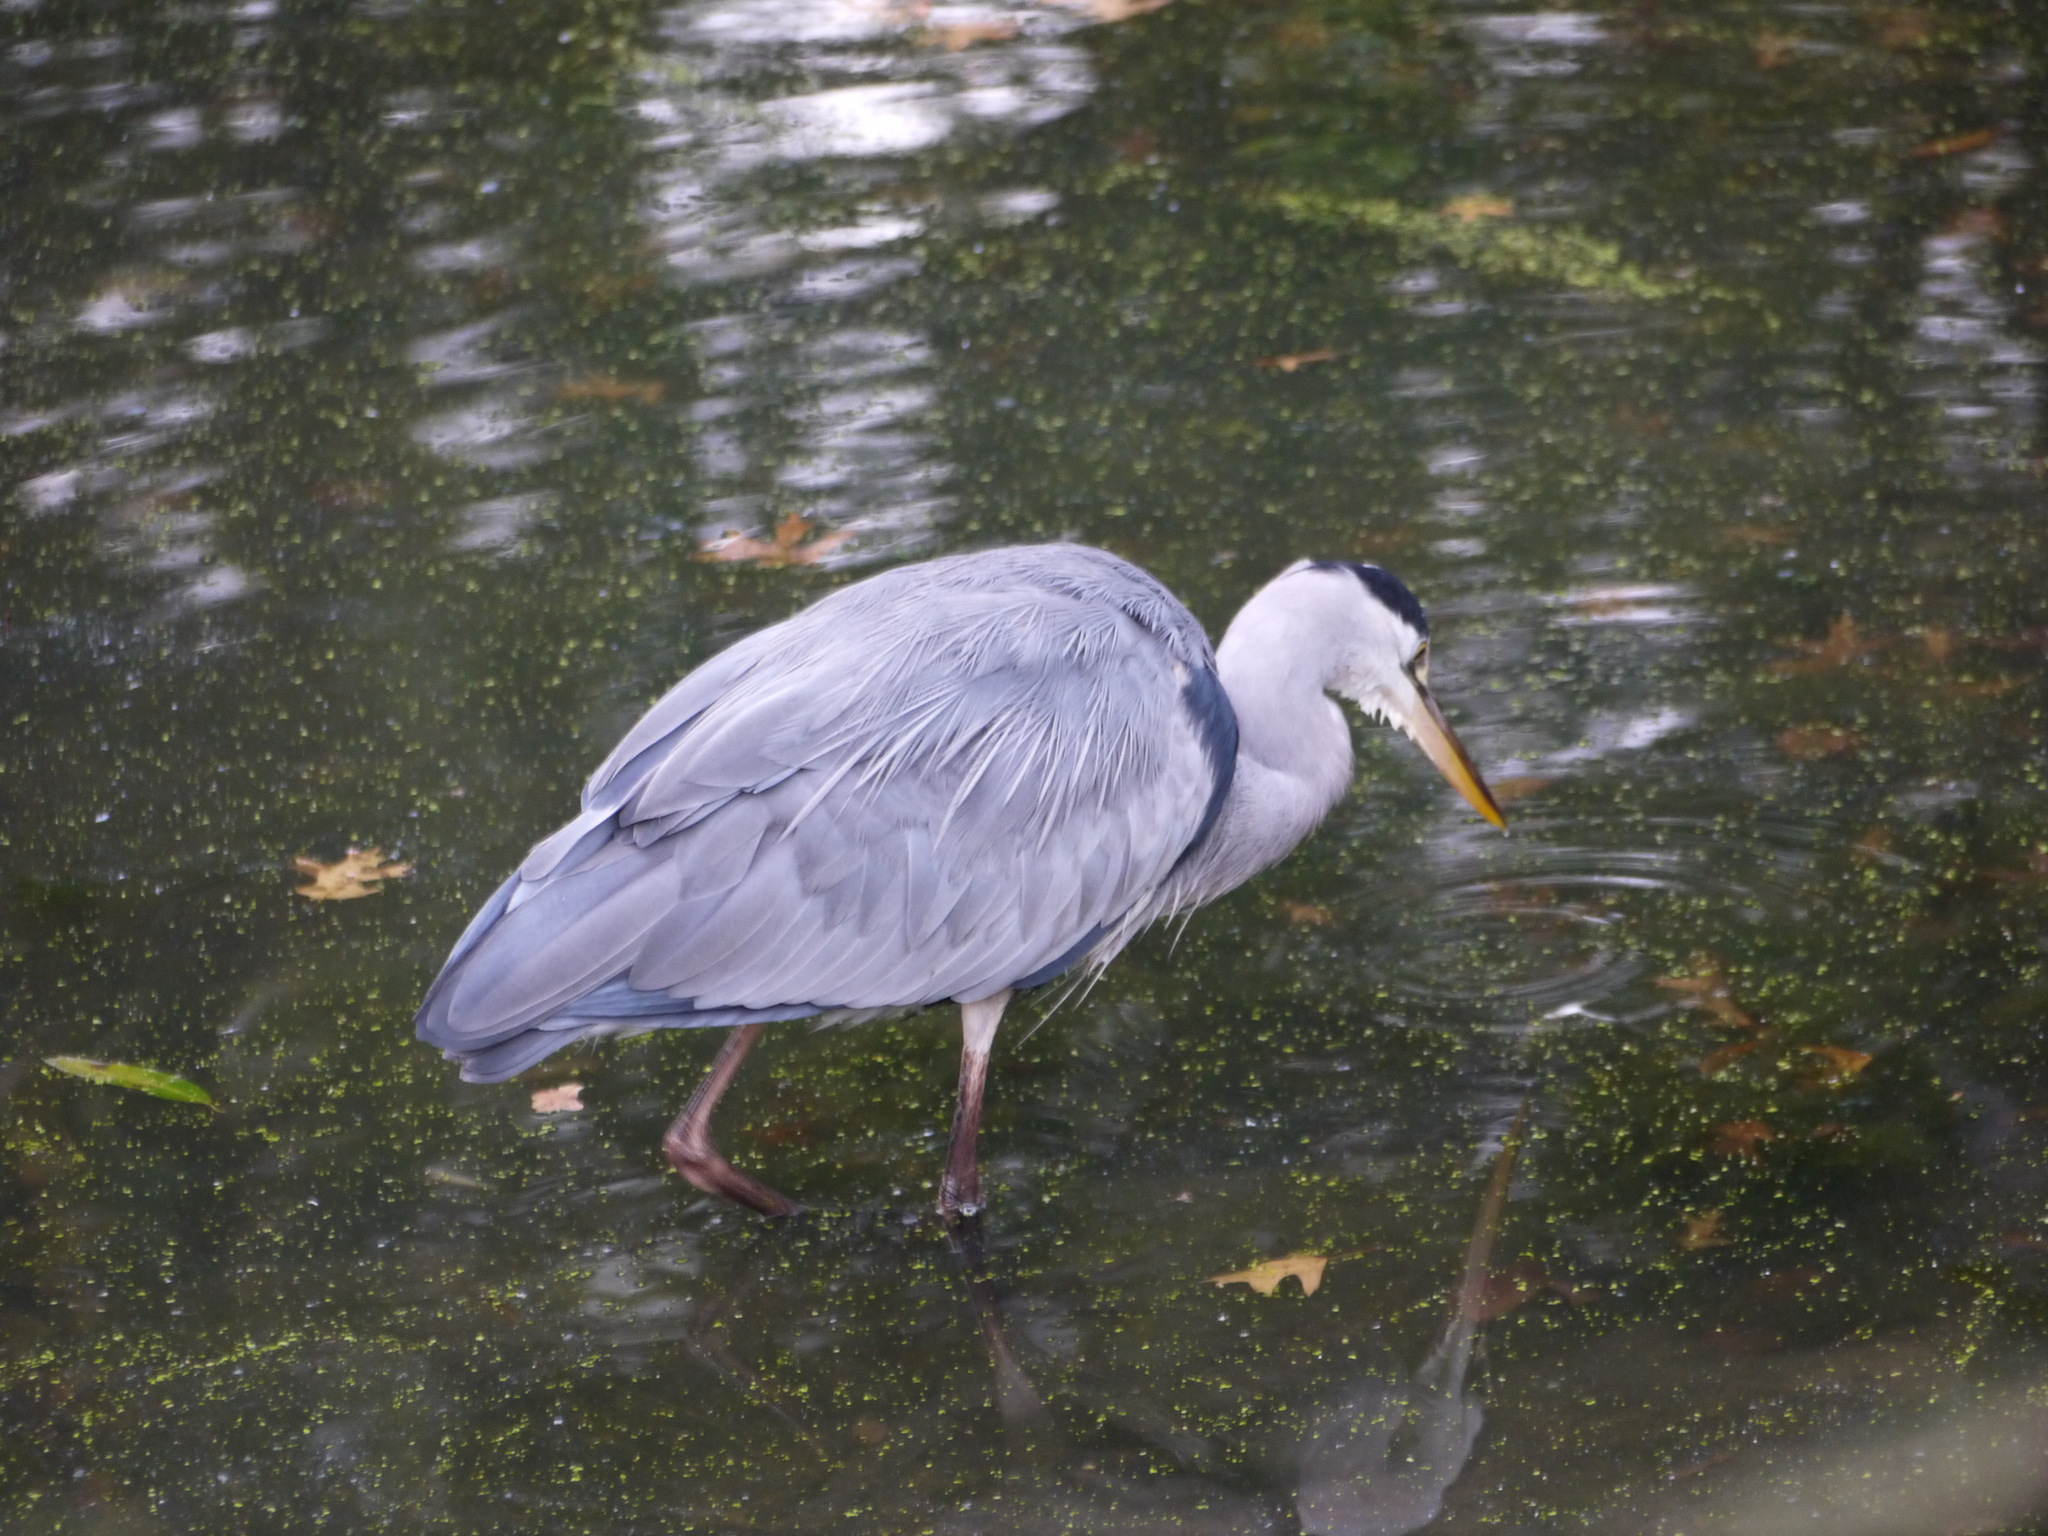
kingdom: Animalia
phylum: Chordata
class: Aves
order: Pelecaniformes
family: Ardeidae
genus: Ardea
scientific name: Ardea cinerea
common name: Grey heron
